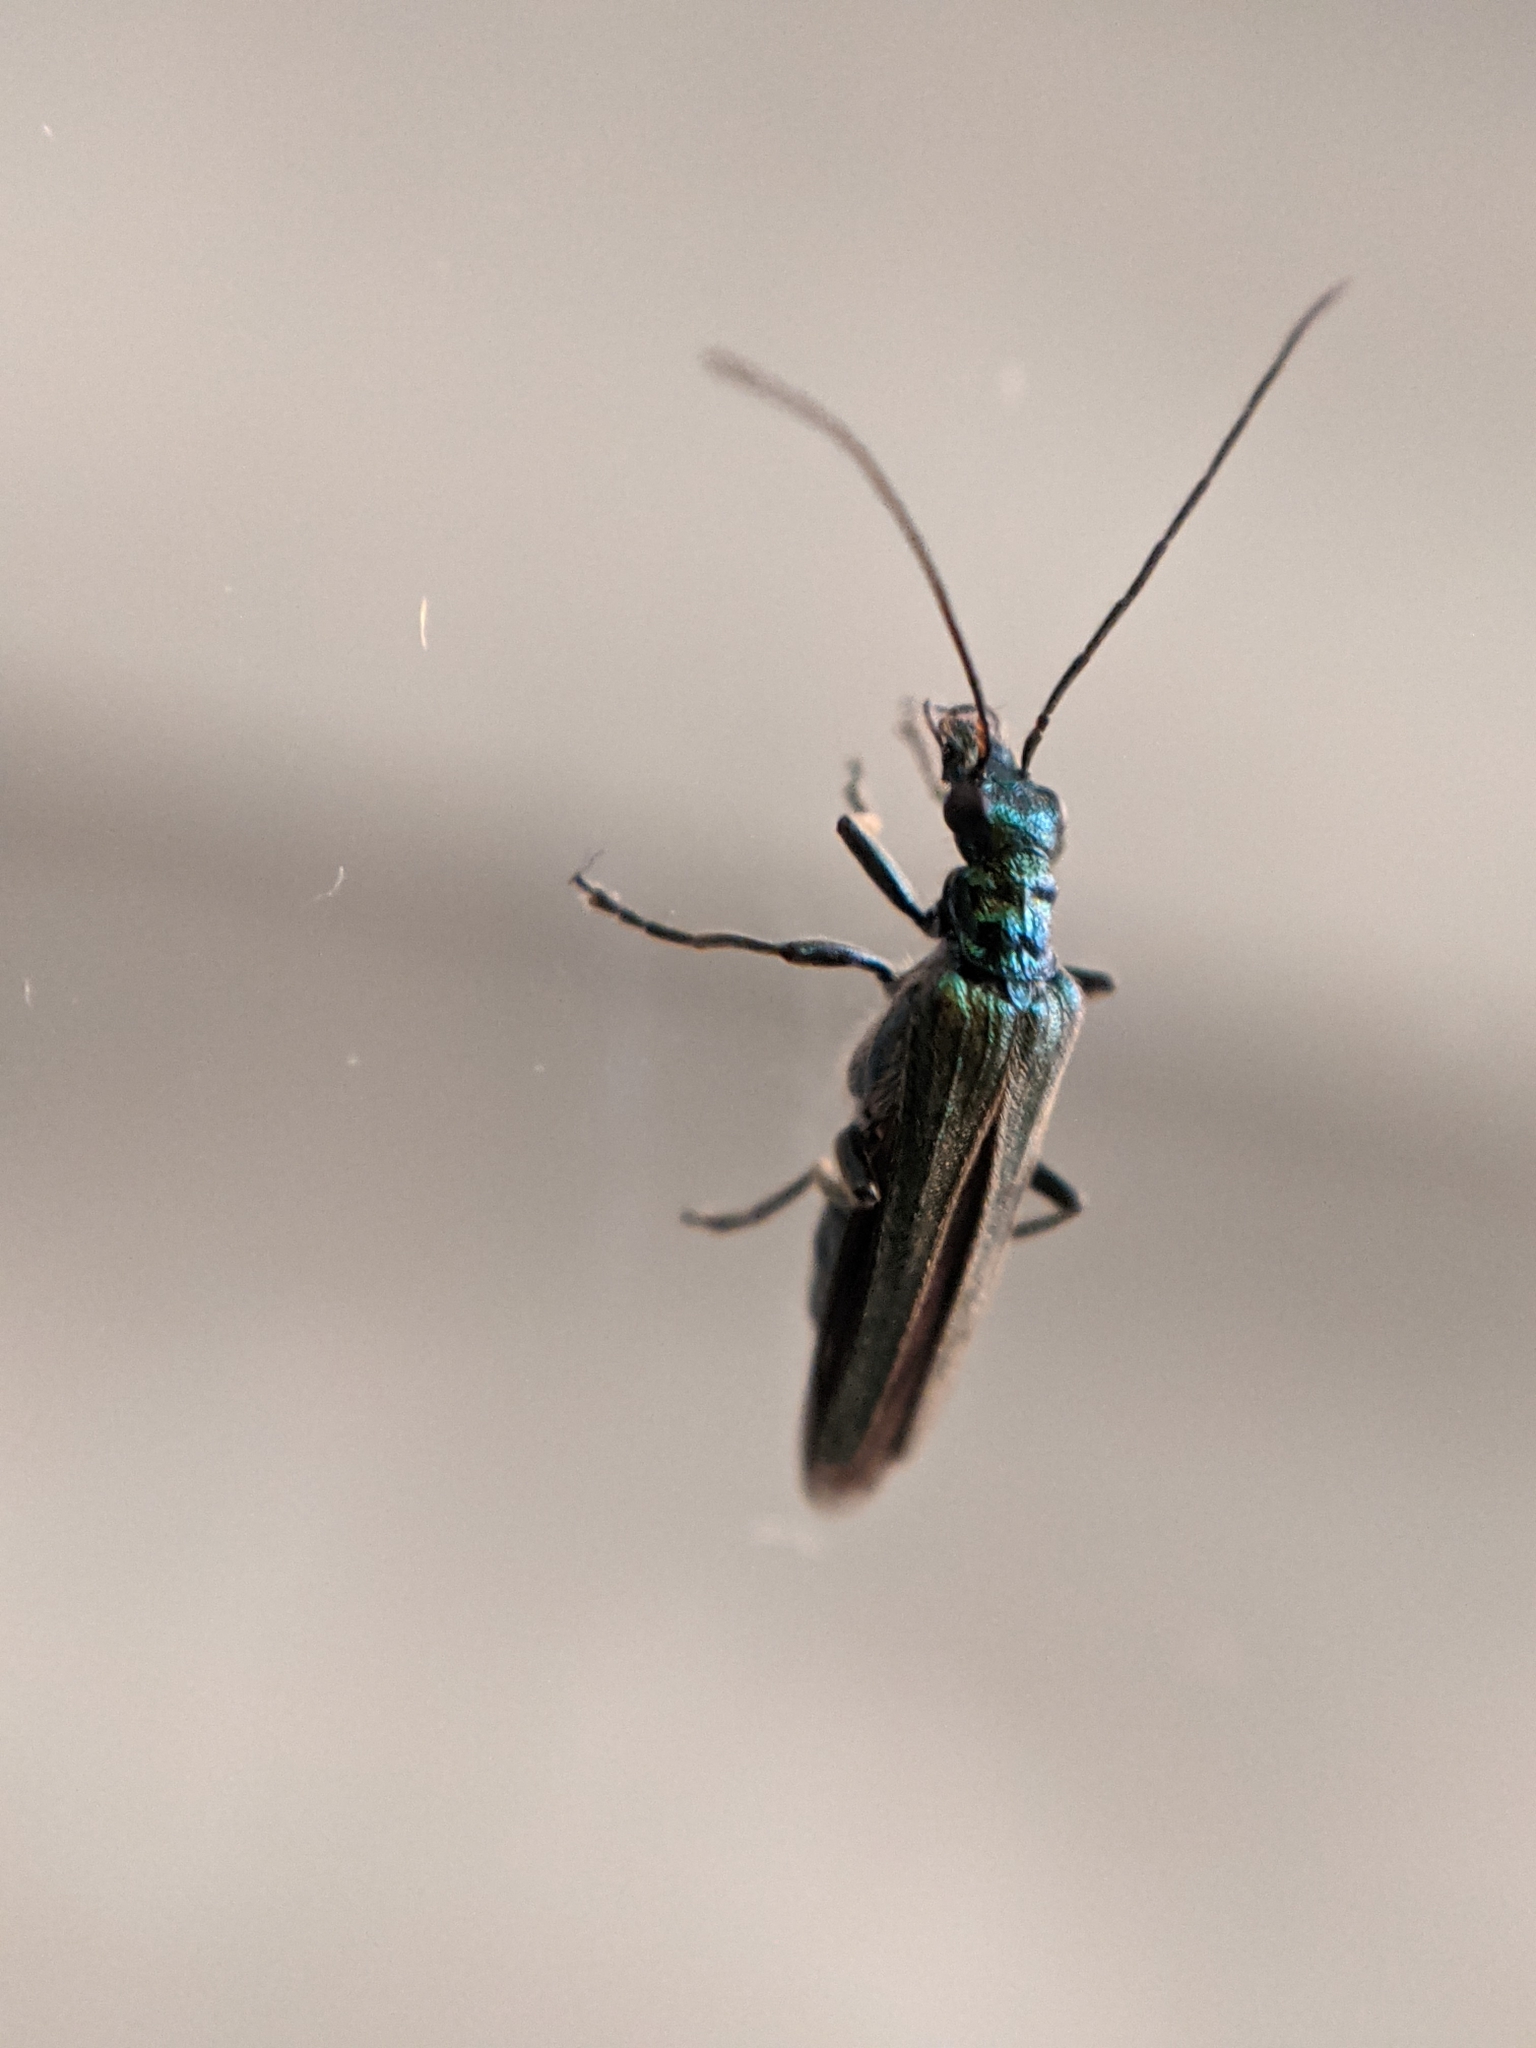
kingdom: Animalia
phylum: Arthropoda
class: Insecta
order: Coleoptera
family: Oedemeridae
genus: Oedemera
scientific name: Oedemera nobilis
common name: Swollen-thighed beetle
